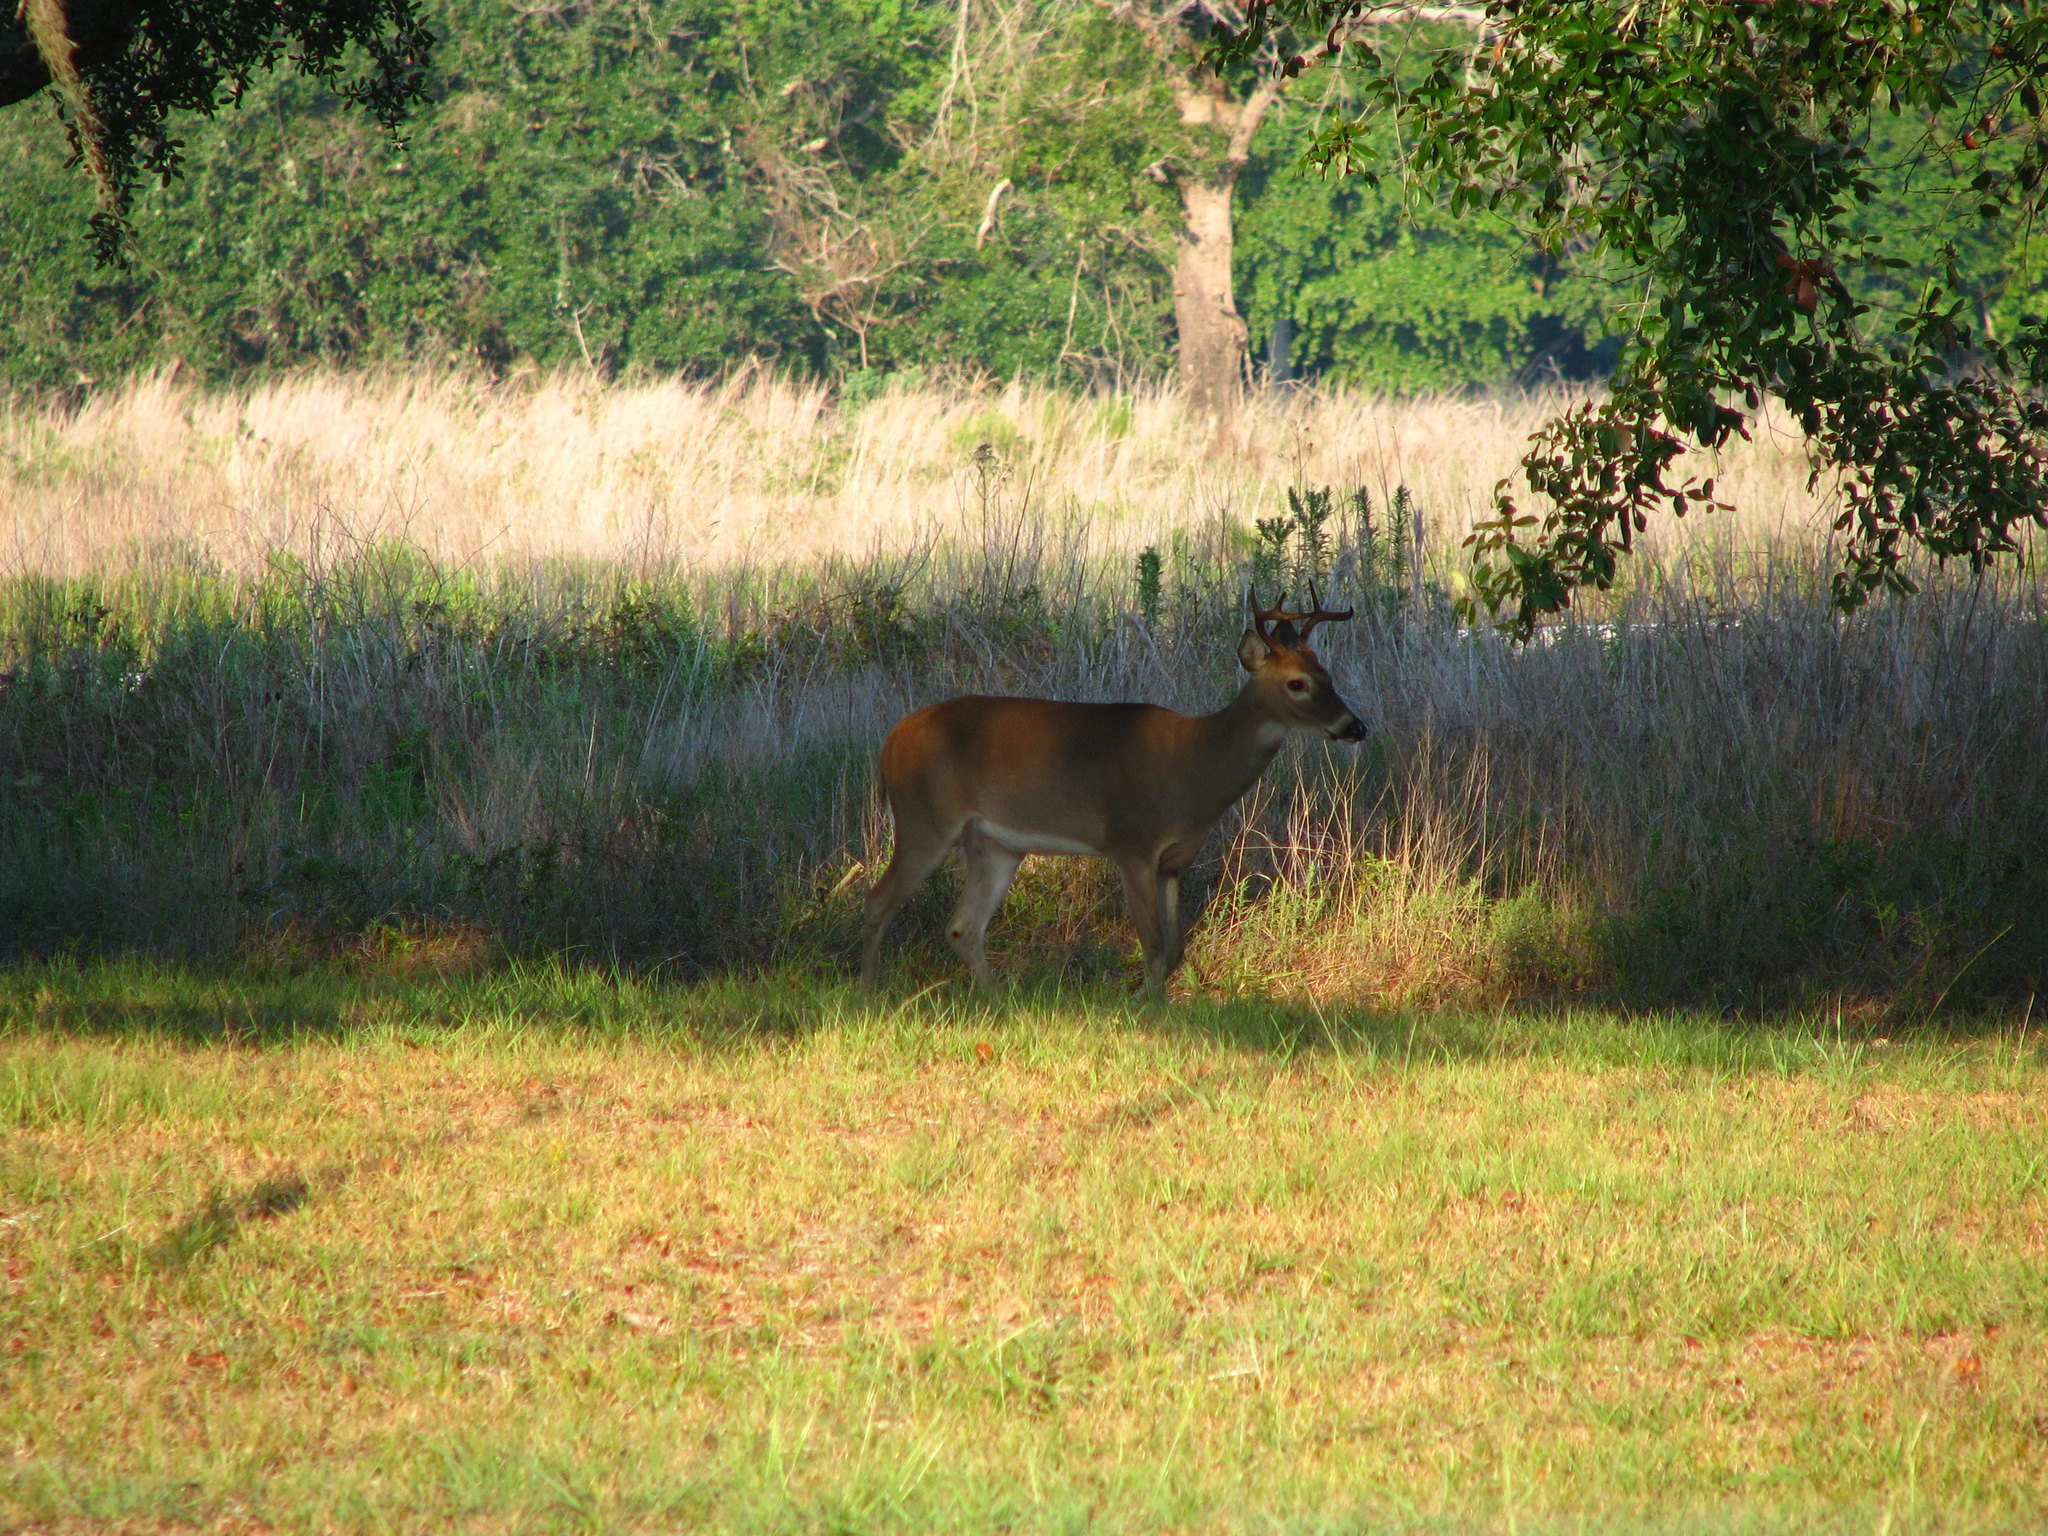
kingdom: Animalia
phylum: Chordata
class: Mammalia
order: Artiodactyla
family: Cervidae
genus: Odocoileus
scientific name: Odocoileus virginianus
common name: White-tailed deer
